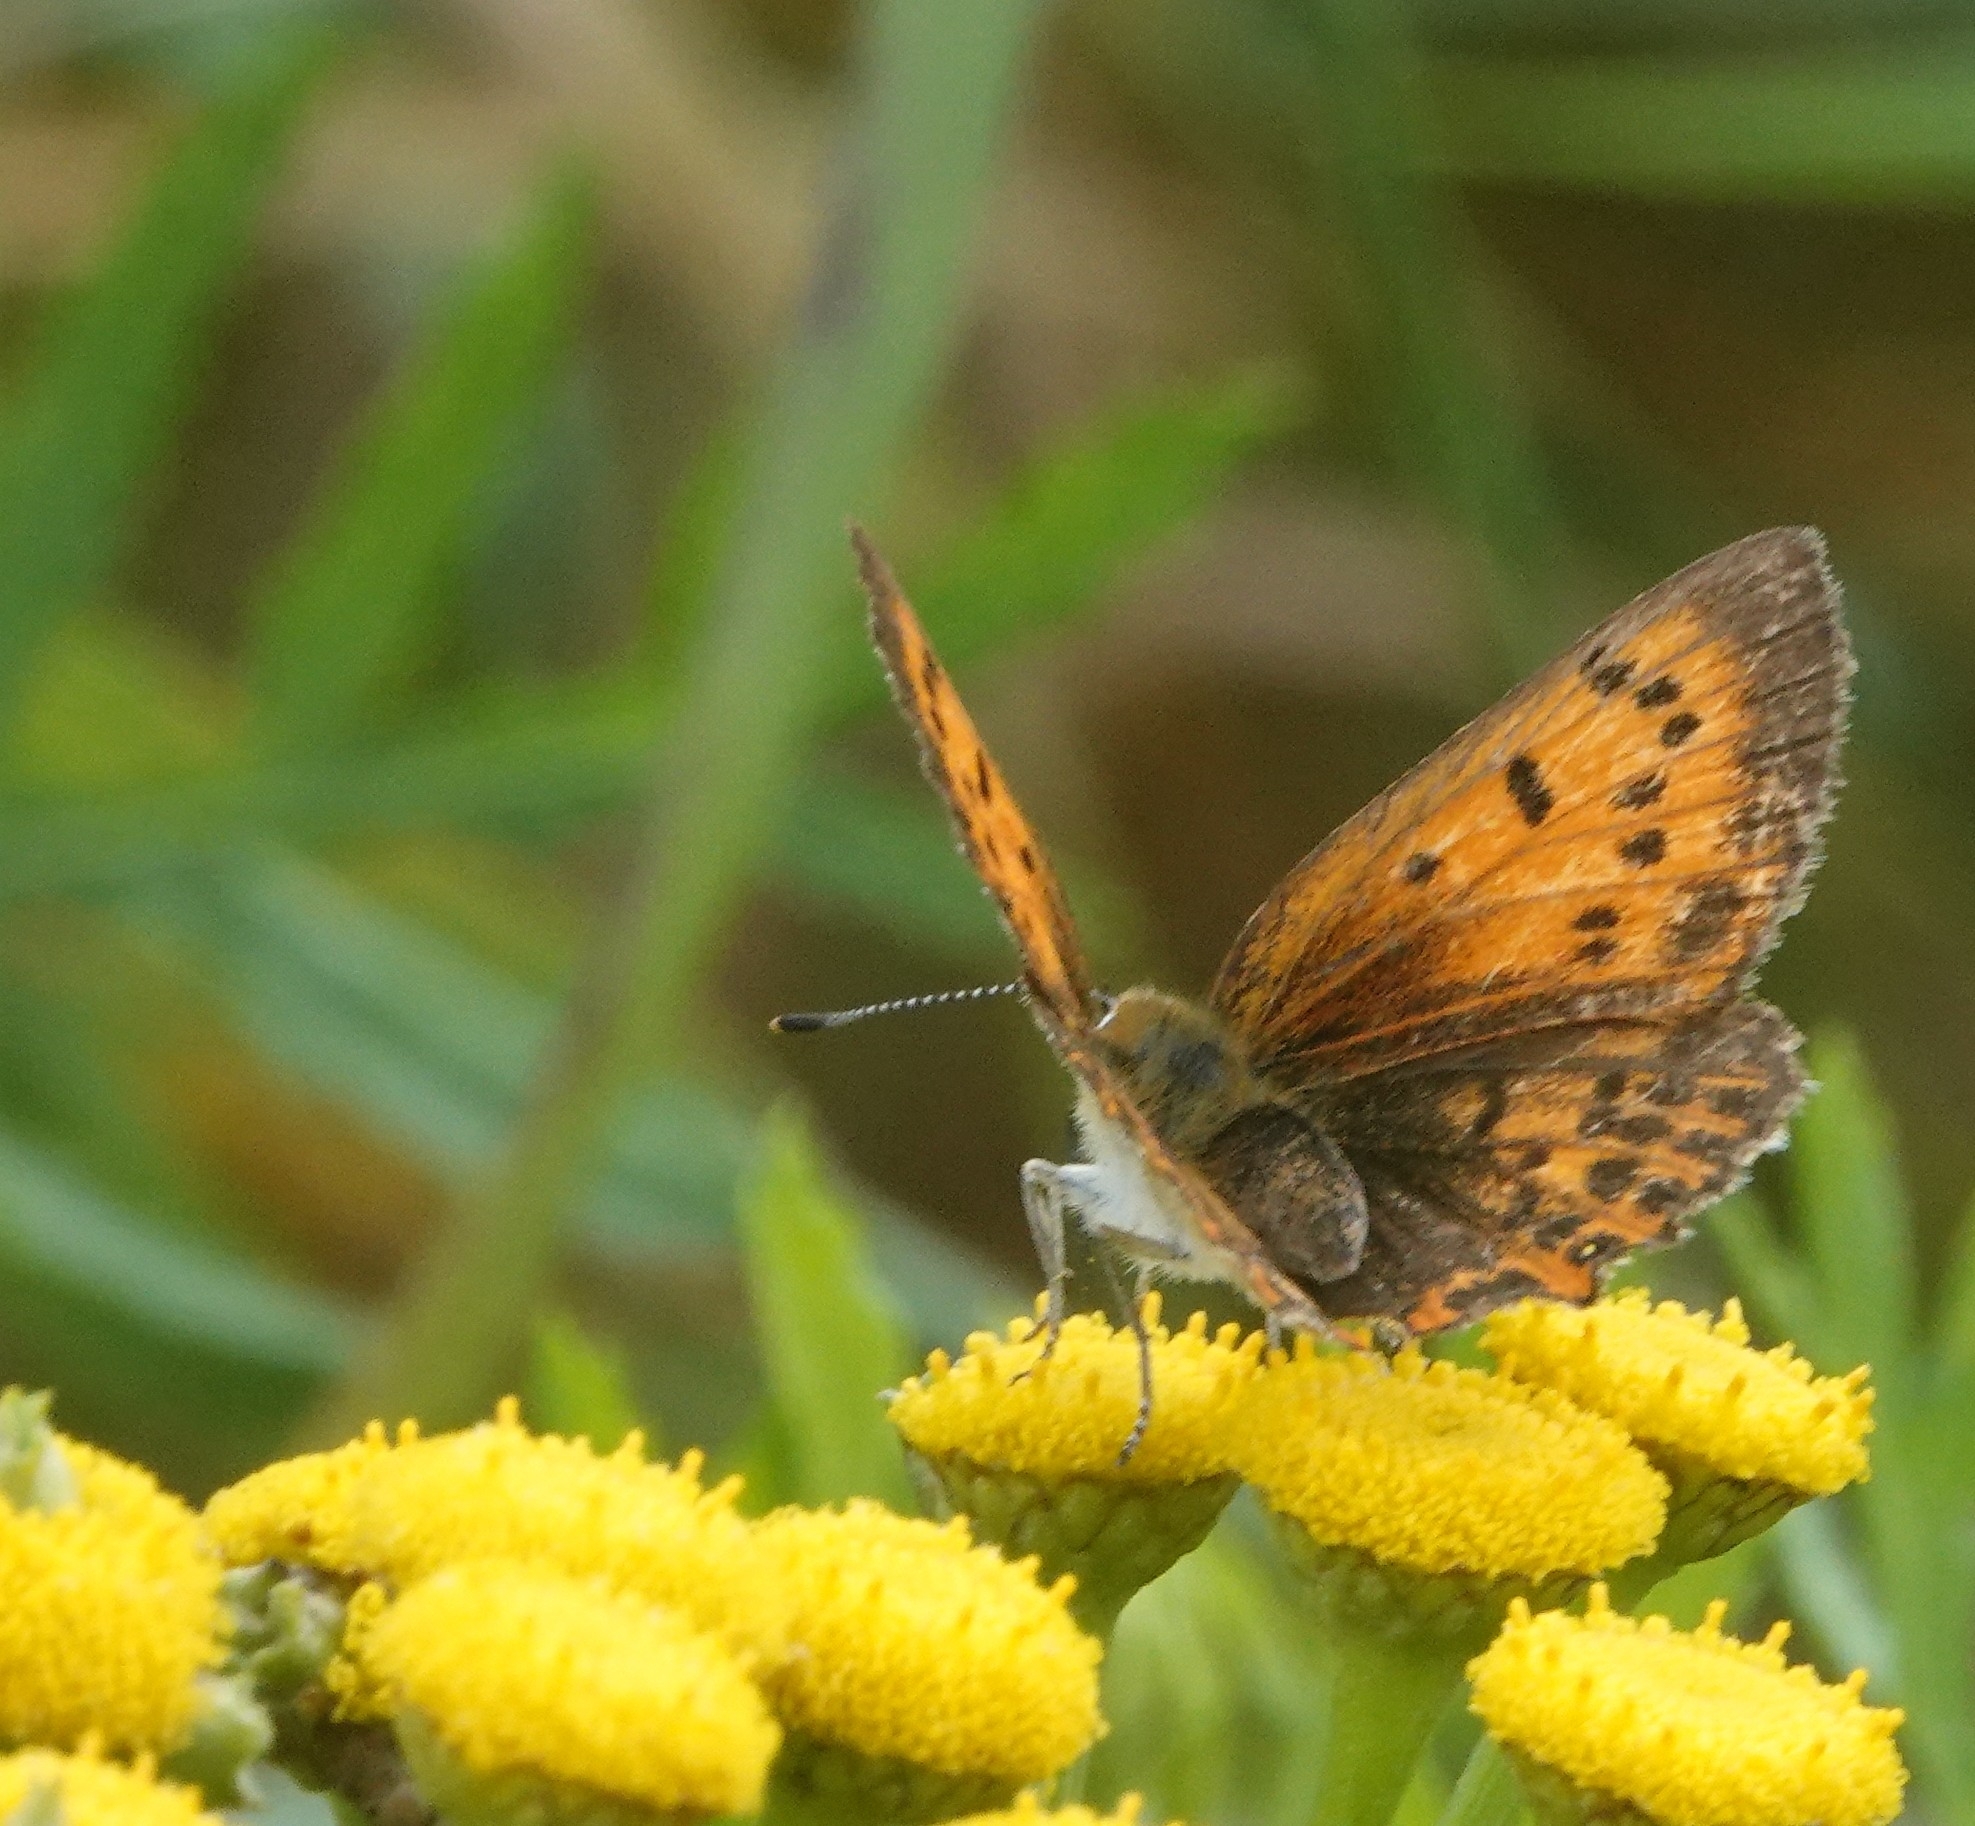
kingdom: Animalia
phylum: Arthropoda
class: Insecta
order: Lepidoptera
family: Lycaenidae
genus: Lycaena
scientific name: Lycaena virgaureae
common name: Scarce copper
